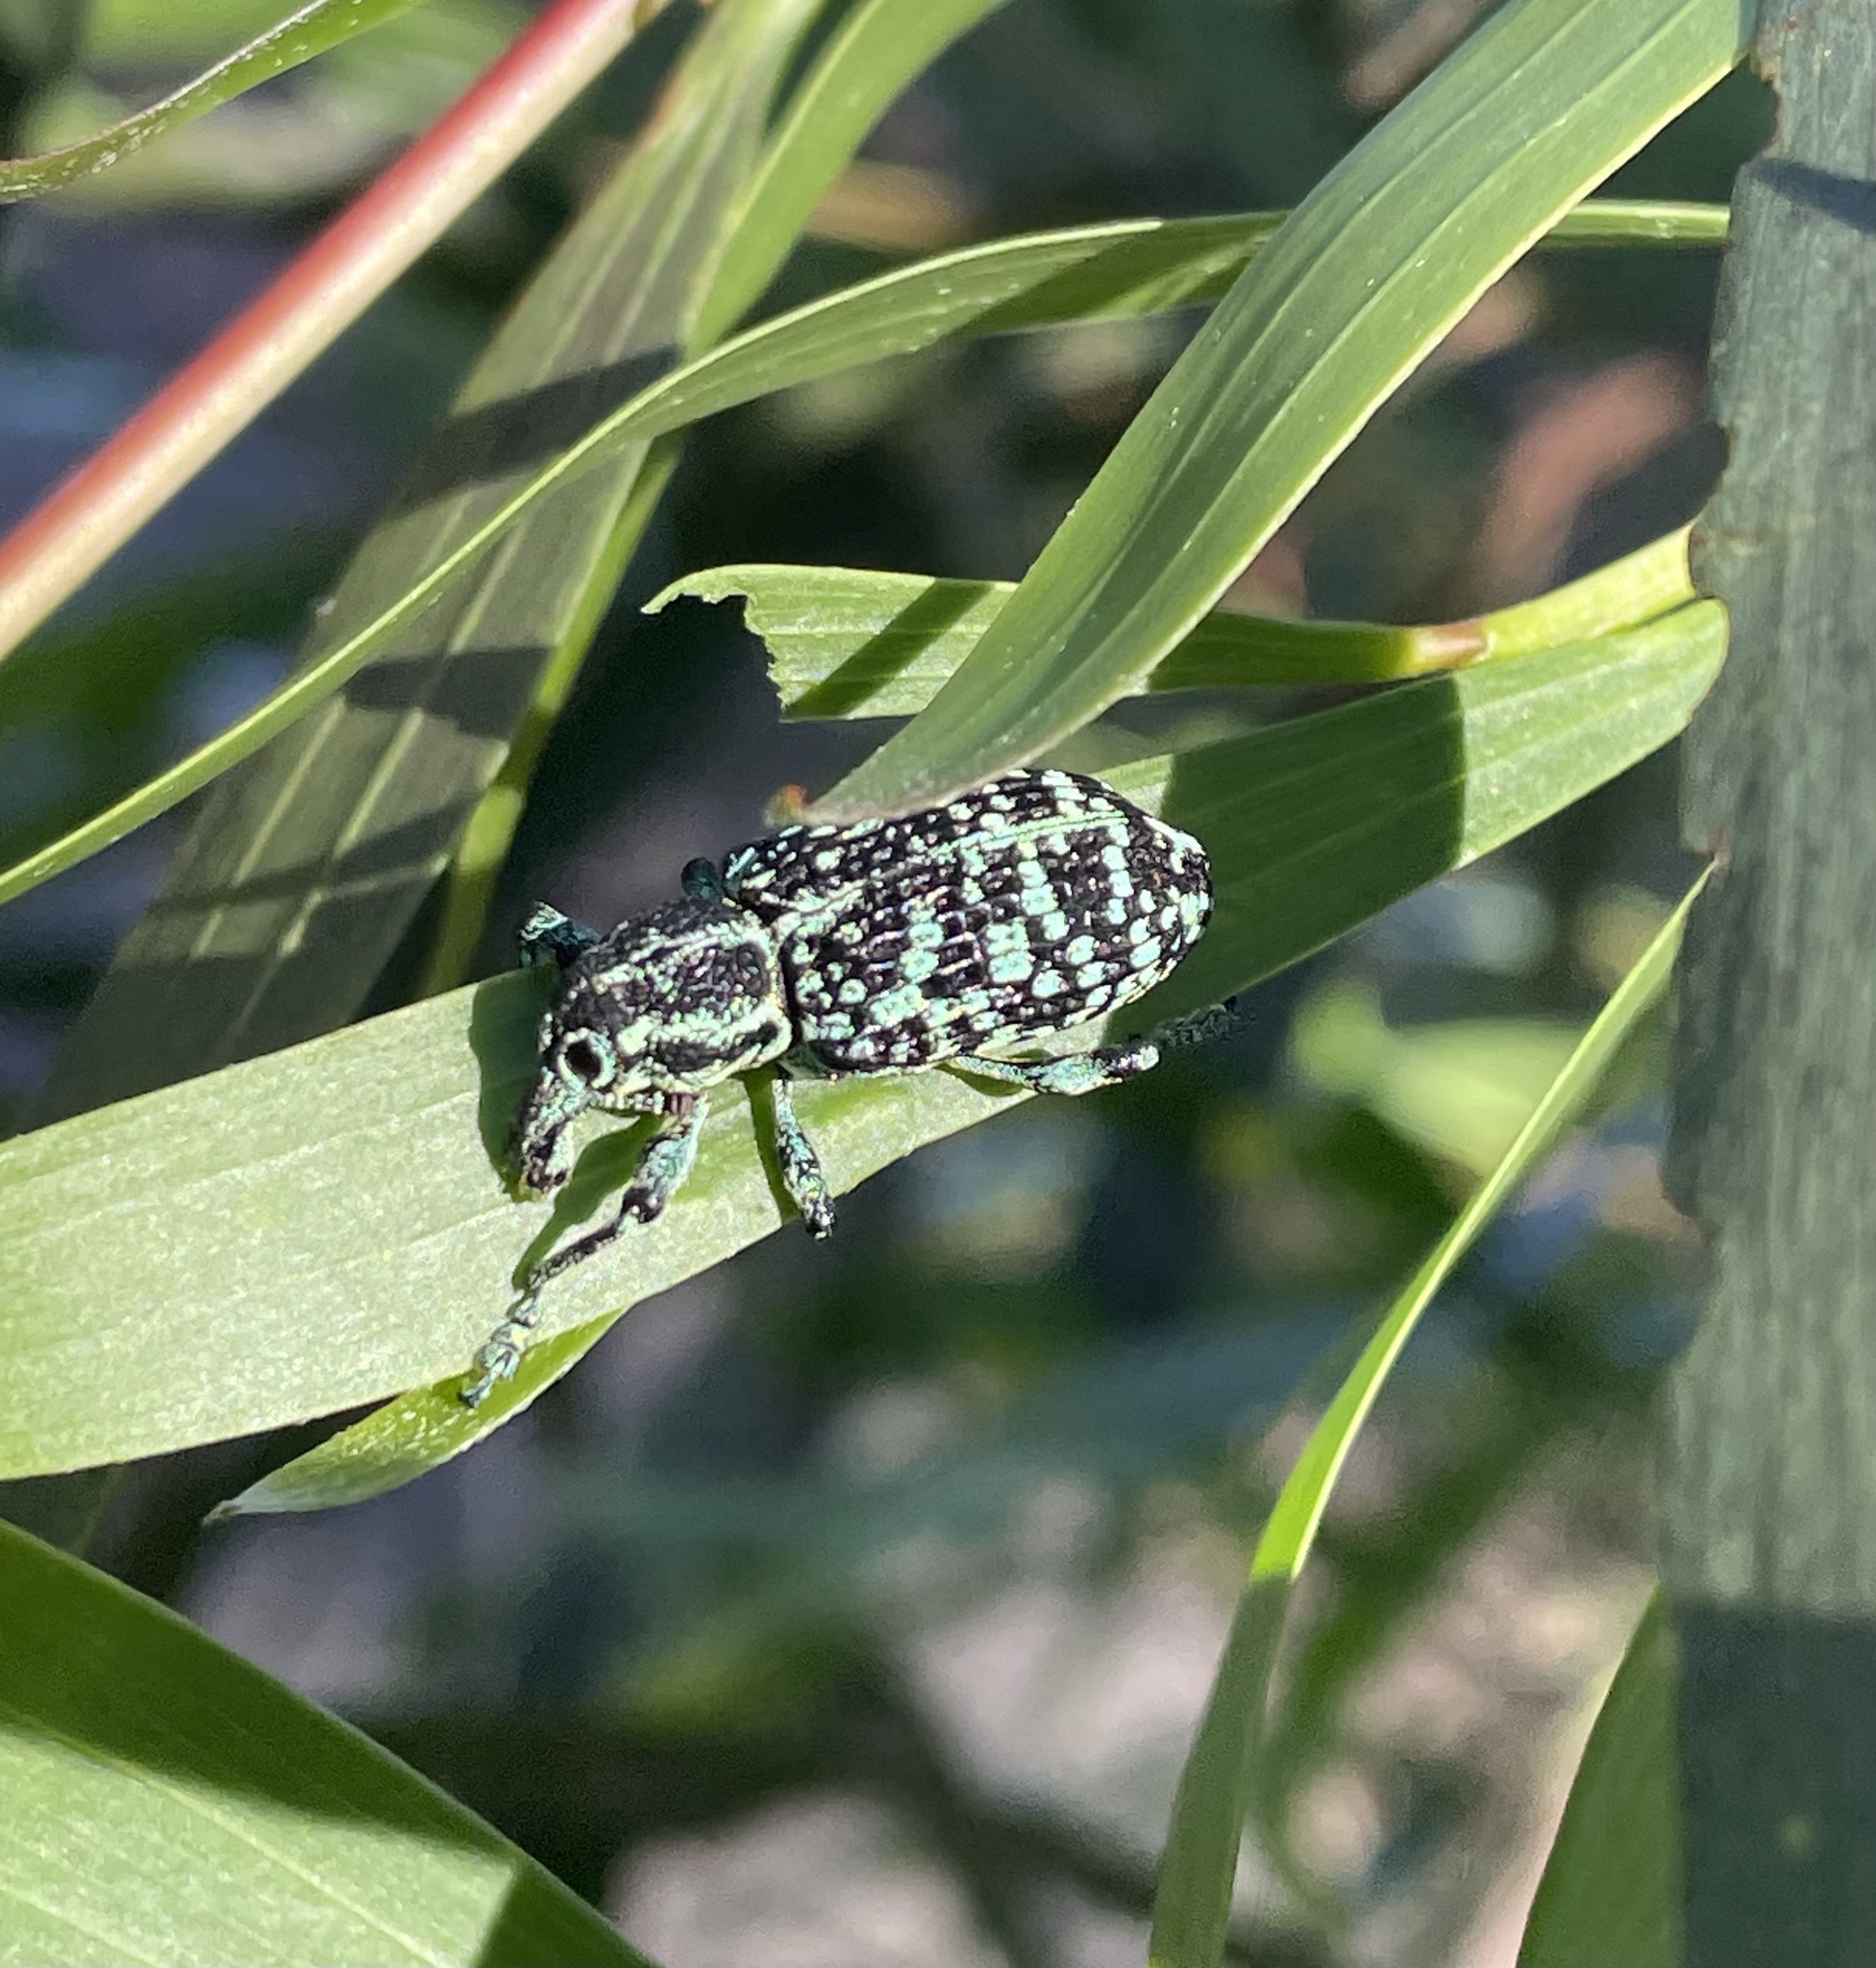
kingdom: Animalia
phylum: Arthropoda
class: Insecta
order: Coleoptera
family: Curculionidae
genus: Chrysolopus
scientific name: Chrysolopus spectabilis
